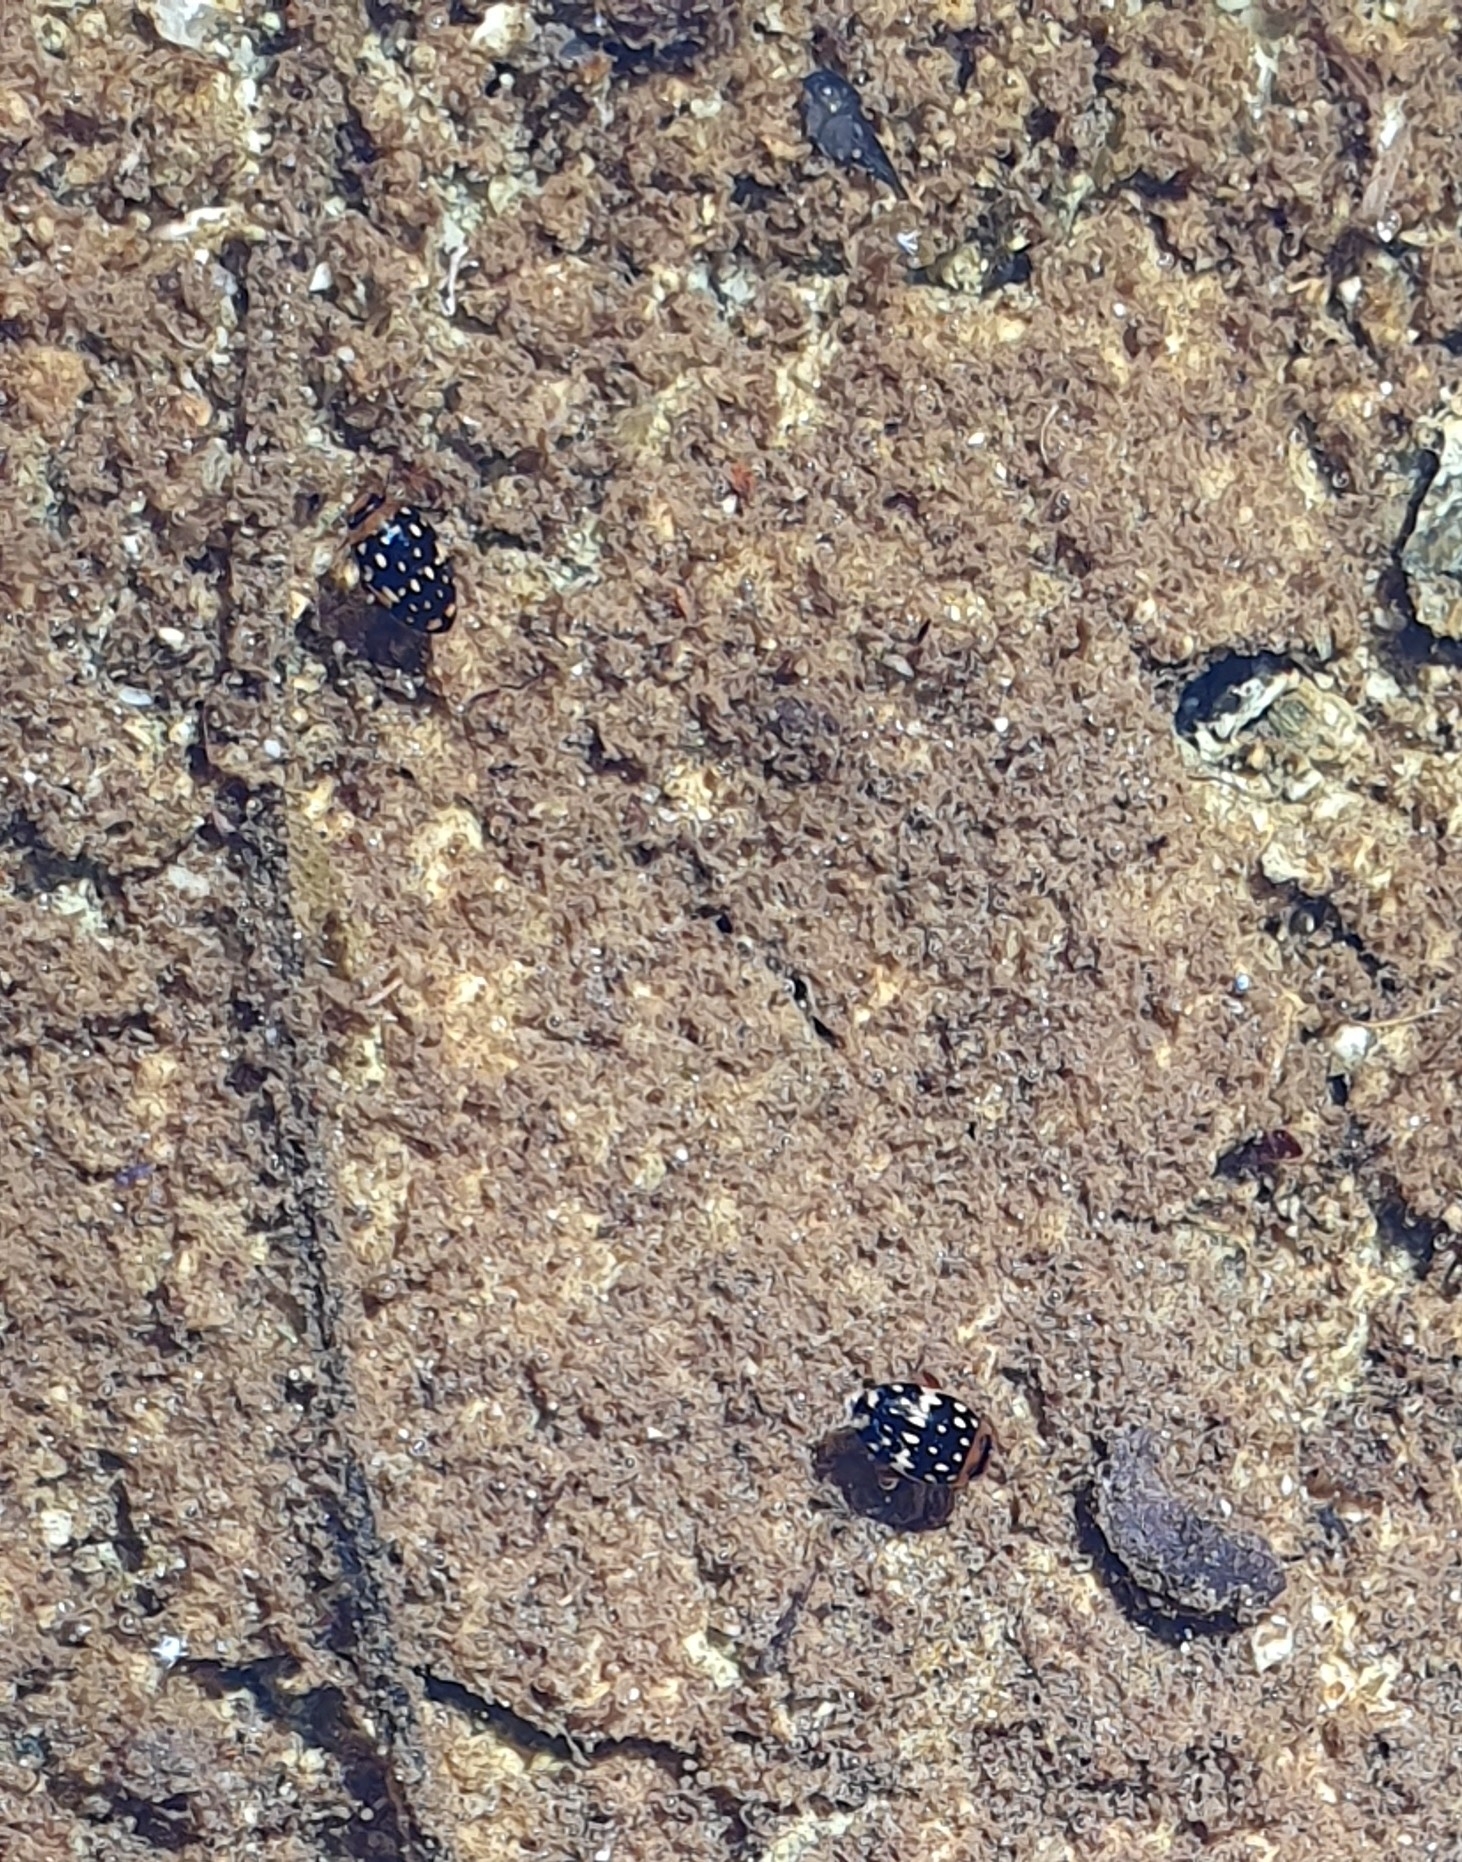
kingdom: Animalia
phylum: Arthropoda
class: Insecta
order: Coleoptera
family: Dytiscidae
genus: Laccophilus
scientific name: Laccophilus pictus
